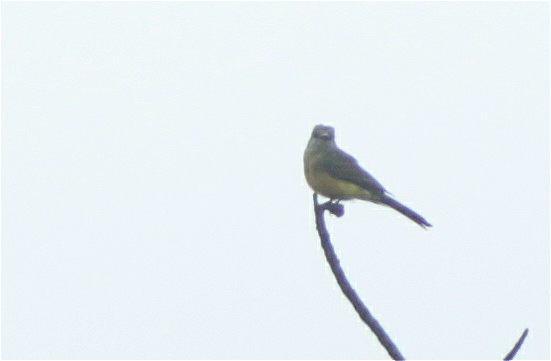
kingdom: Animalia
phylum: Chordata
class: Aves
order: Passeriformes
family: Tyrannidae
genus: Tyrannus
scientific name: Tyrannus melancholicus
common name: Tropical kingbird
